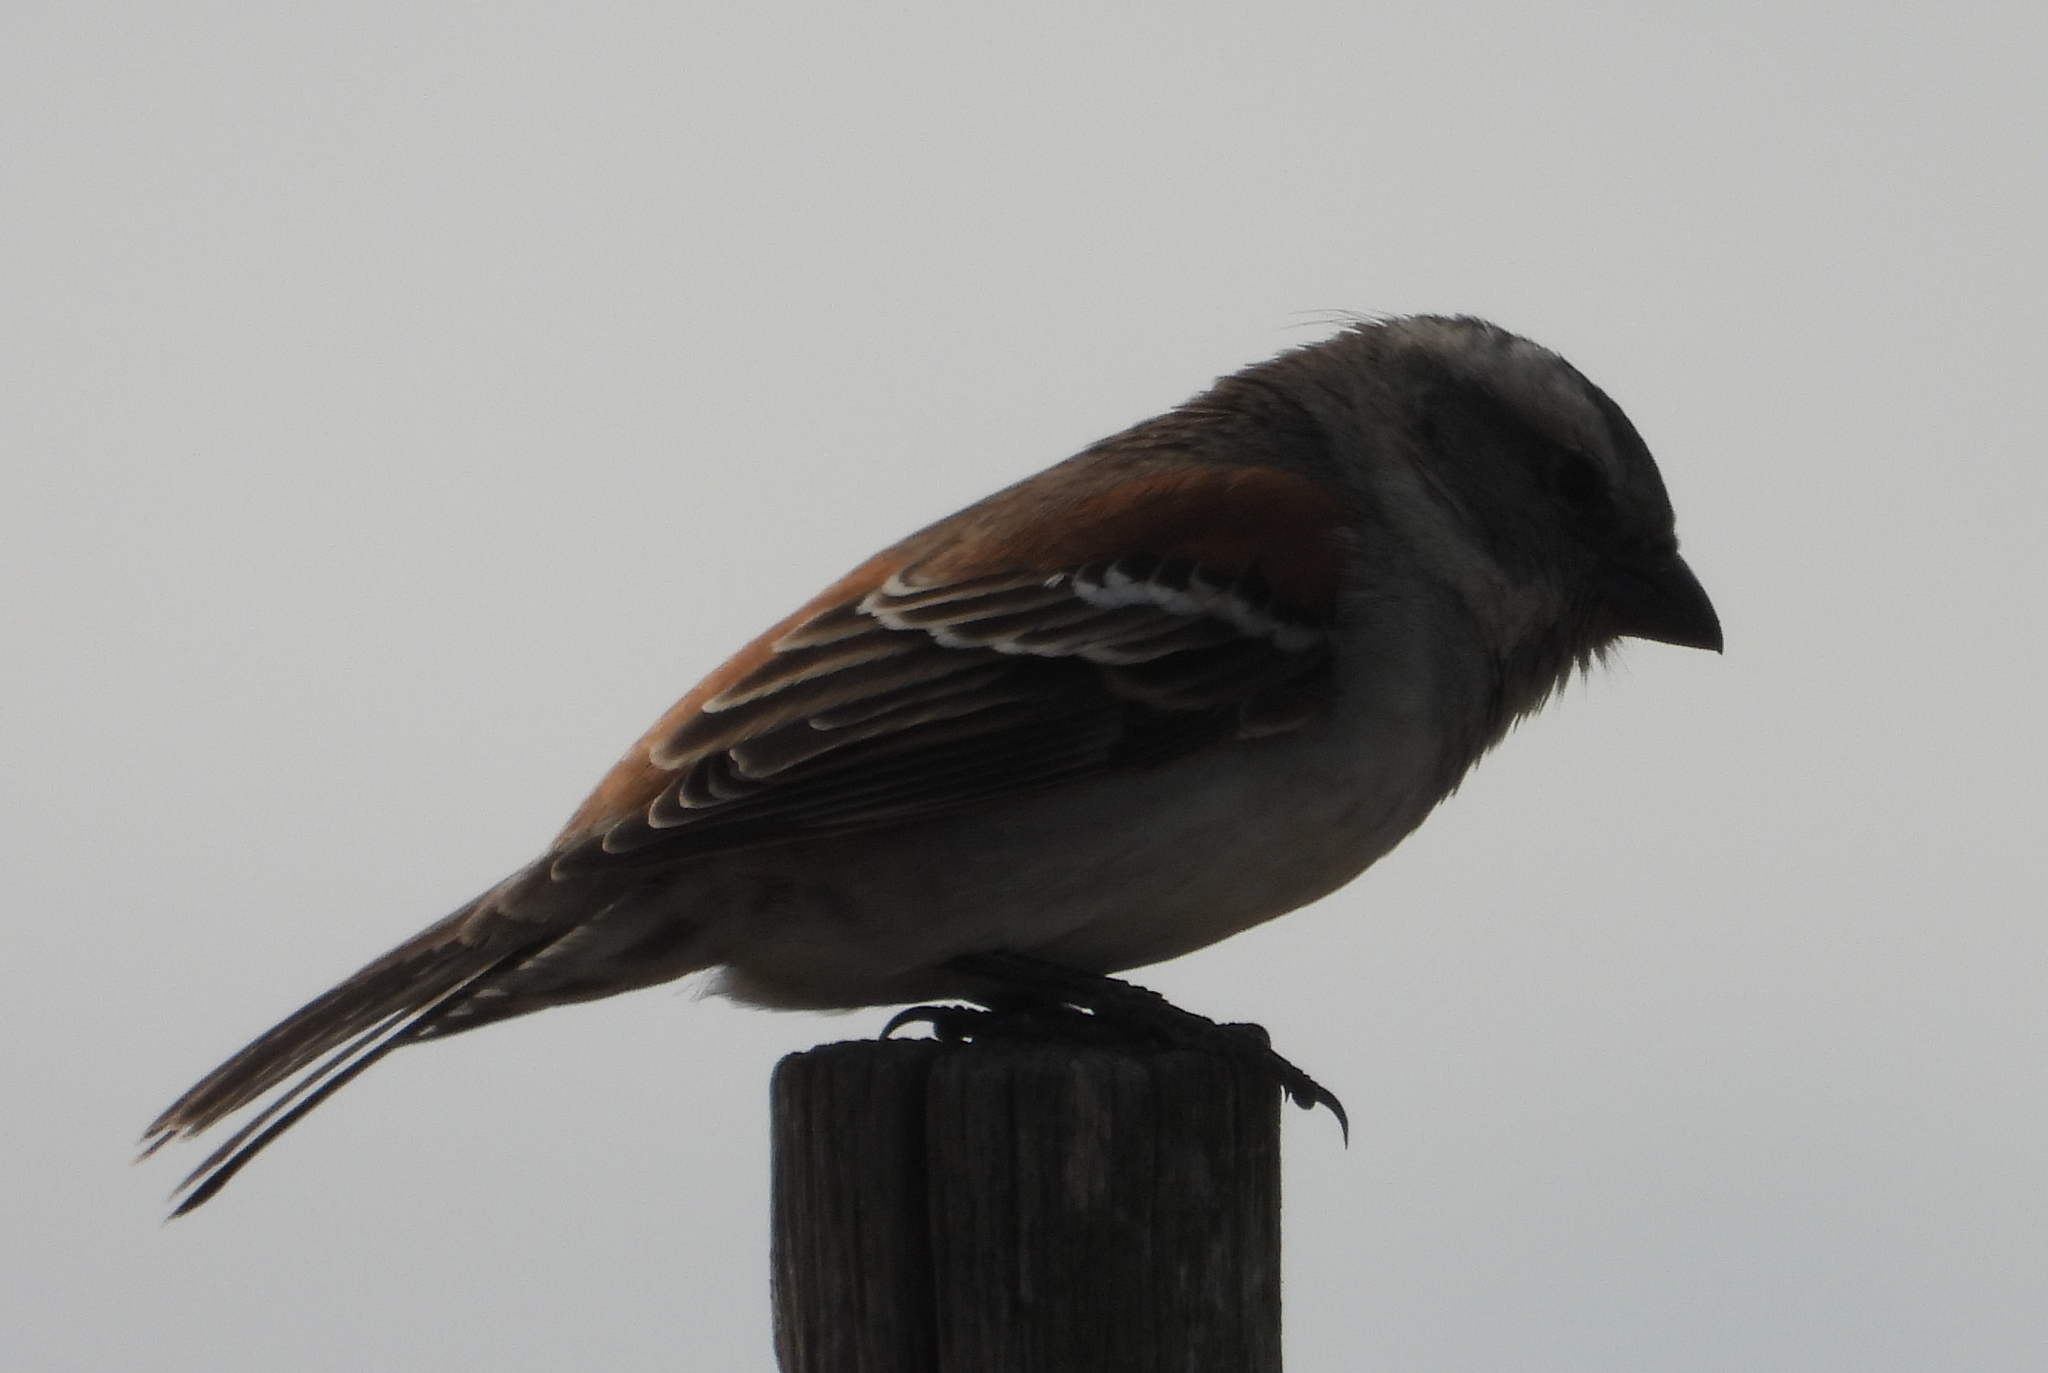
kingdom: Animalia
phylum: Chordata
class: Aves
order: Passeriformes
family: Passeridae
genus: Passer
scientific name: Passer melanurus
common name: Cape sparrow
